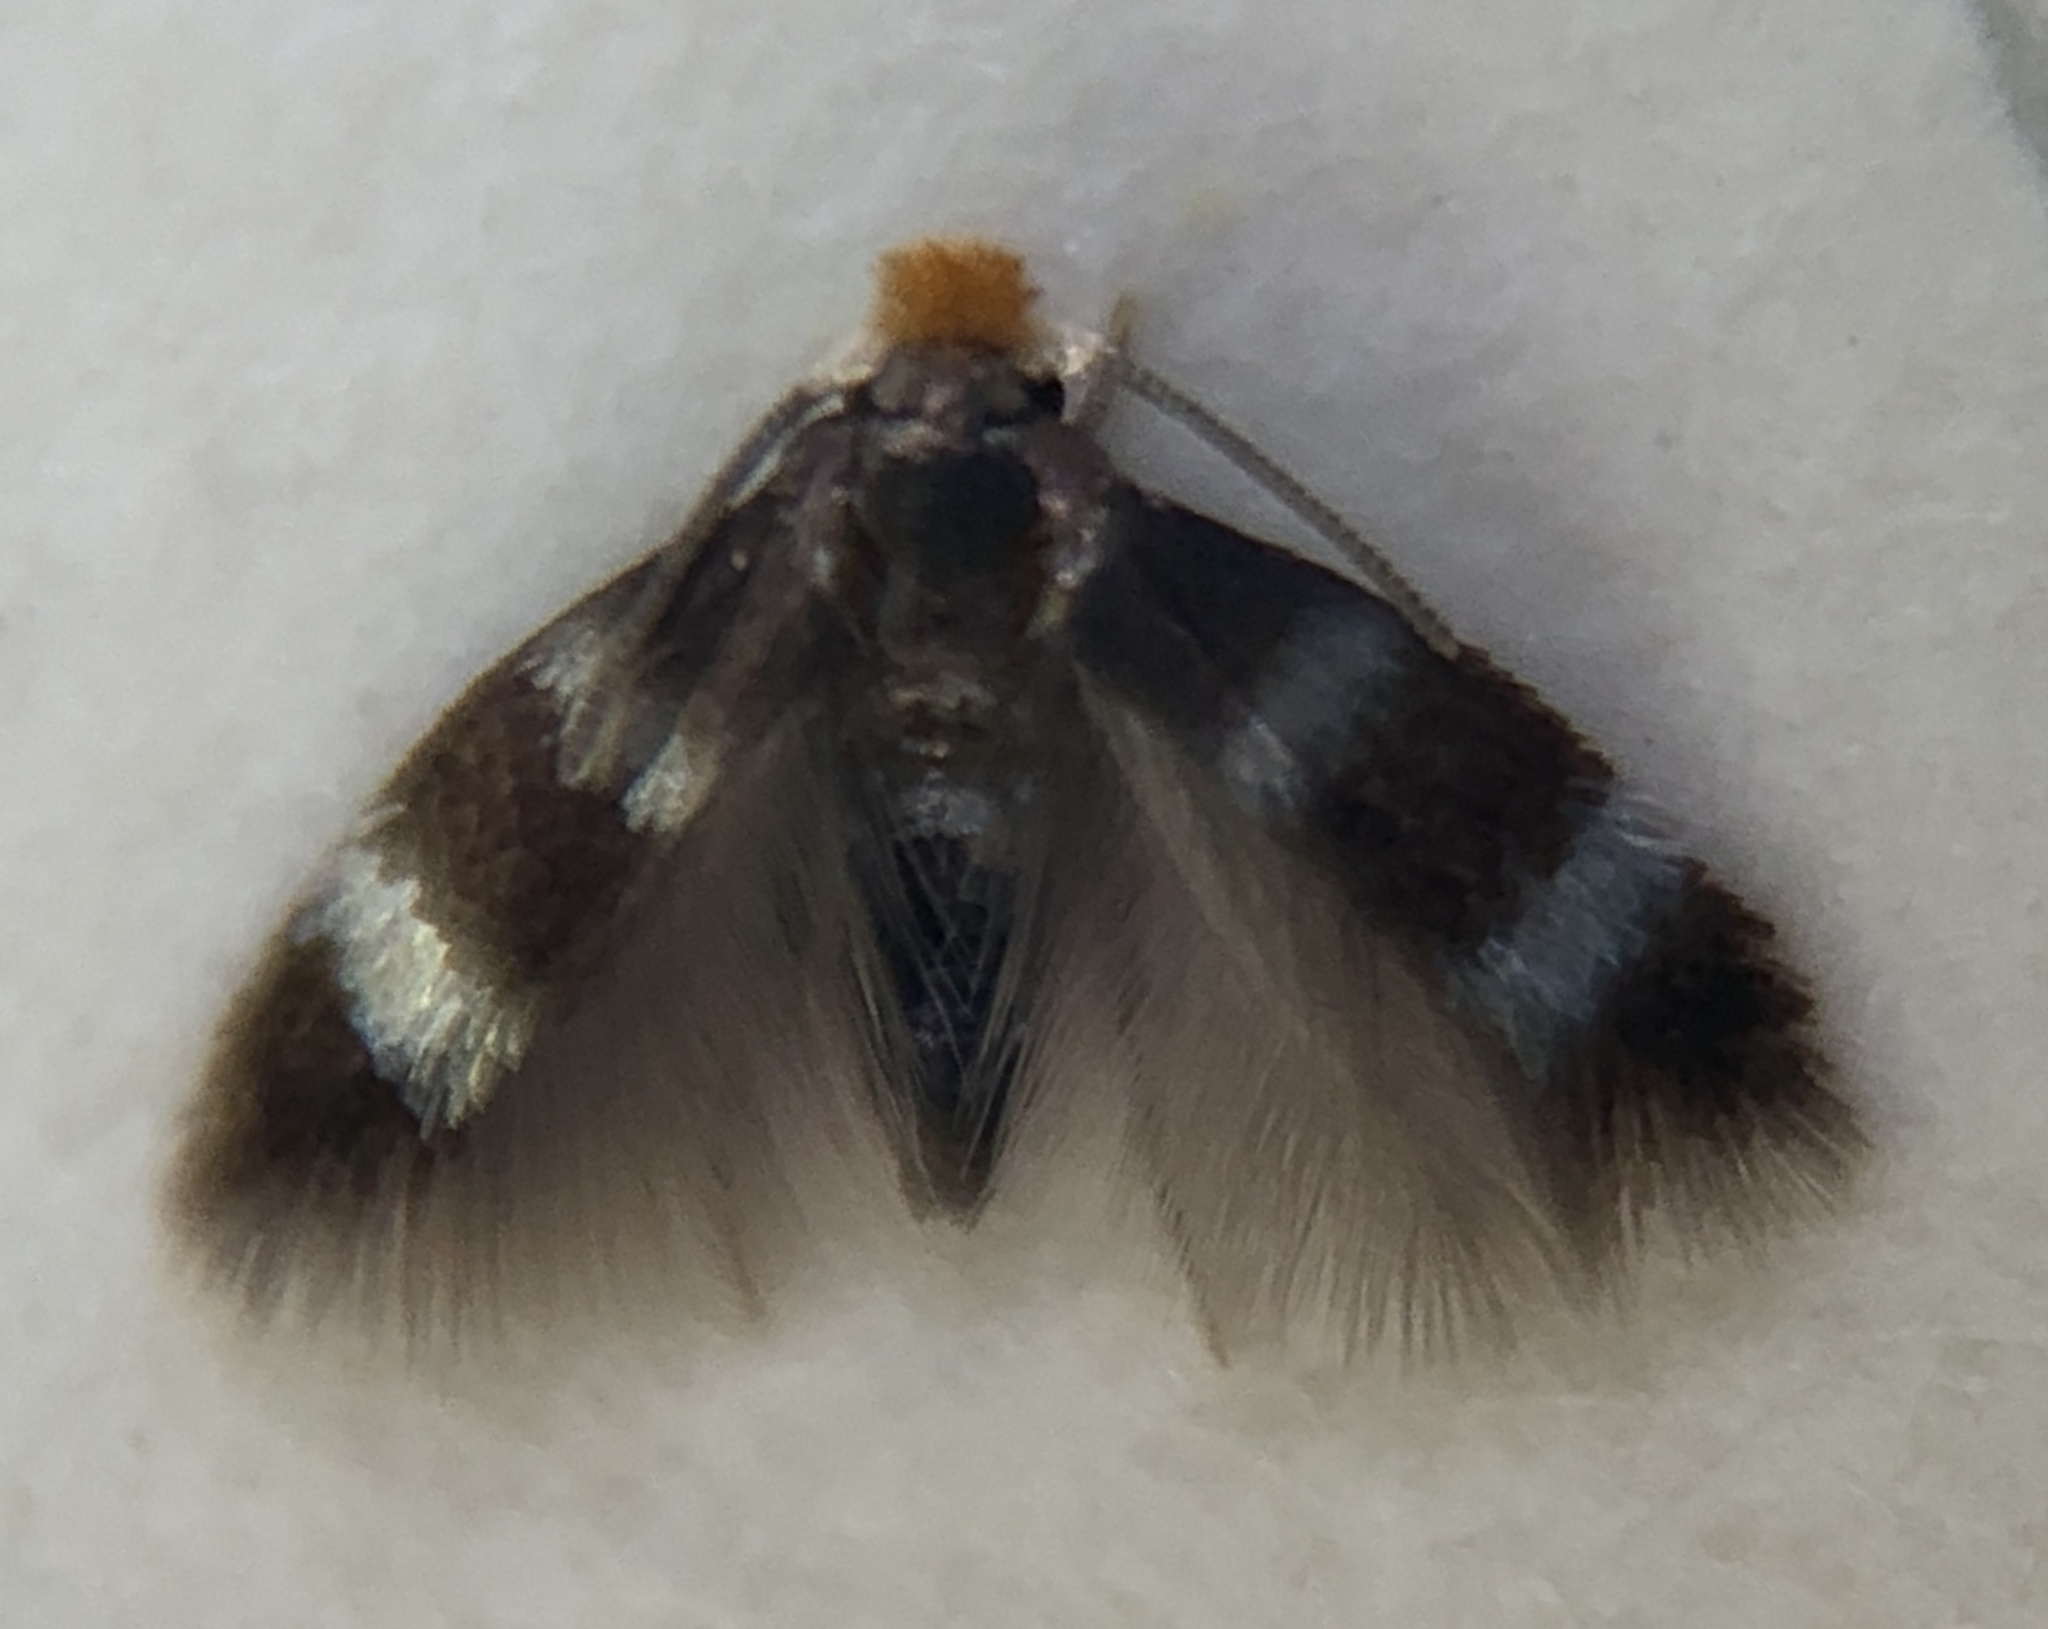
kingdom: Animalia
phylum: Arthropoda
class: Insecta
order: Lepidoptera
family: Nepticulidae
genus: Stigmella
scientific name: Stigmella prunifoliella
